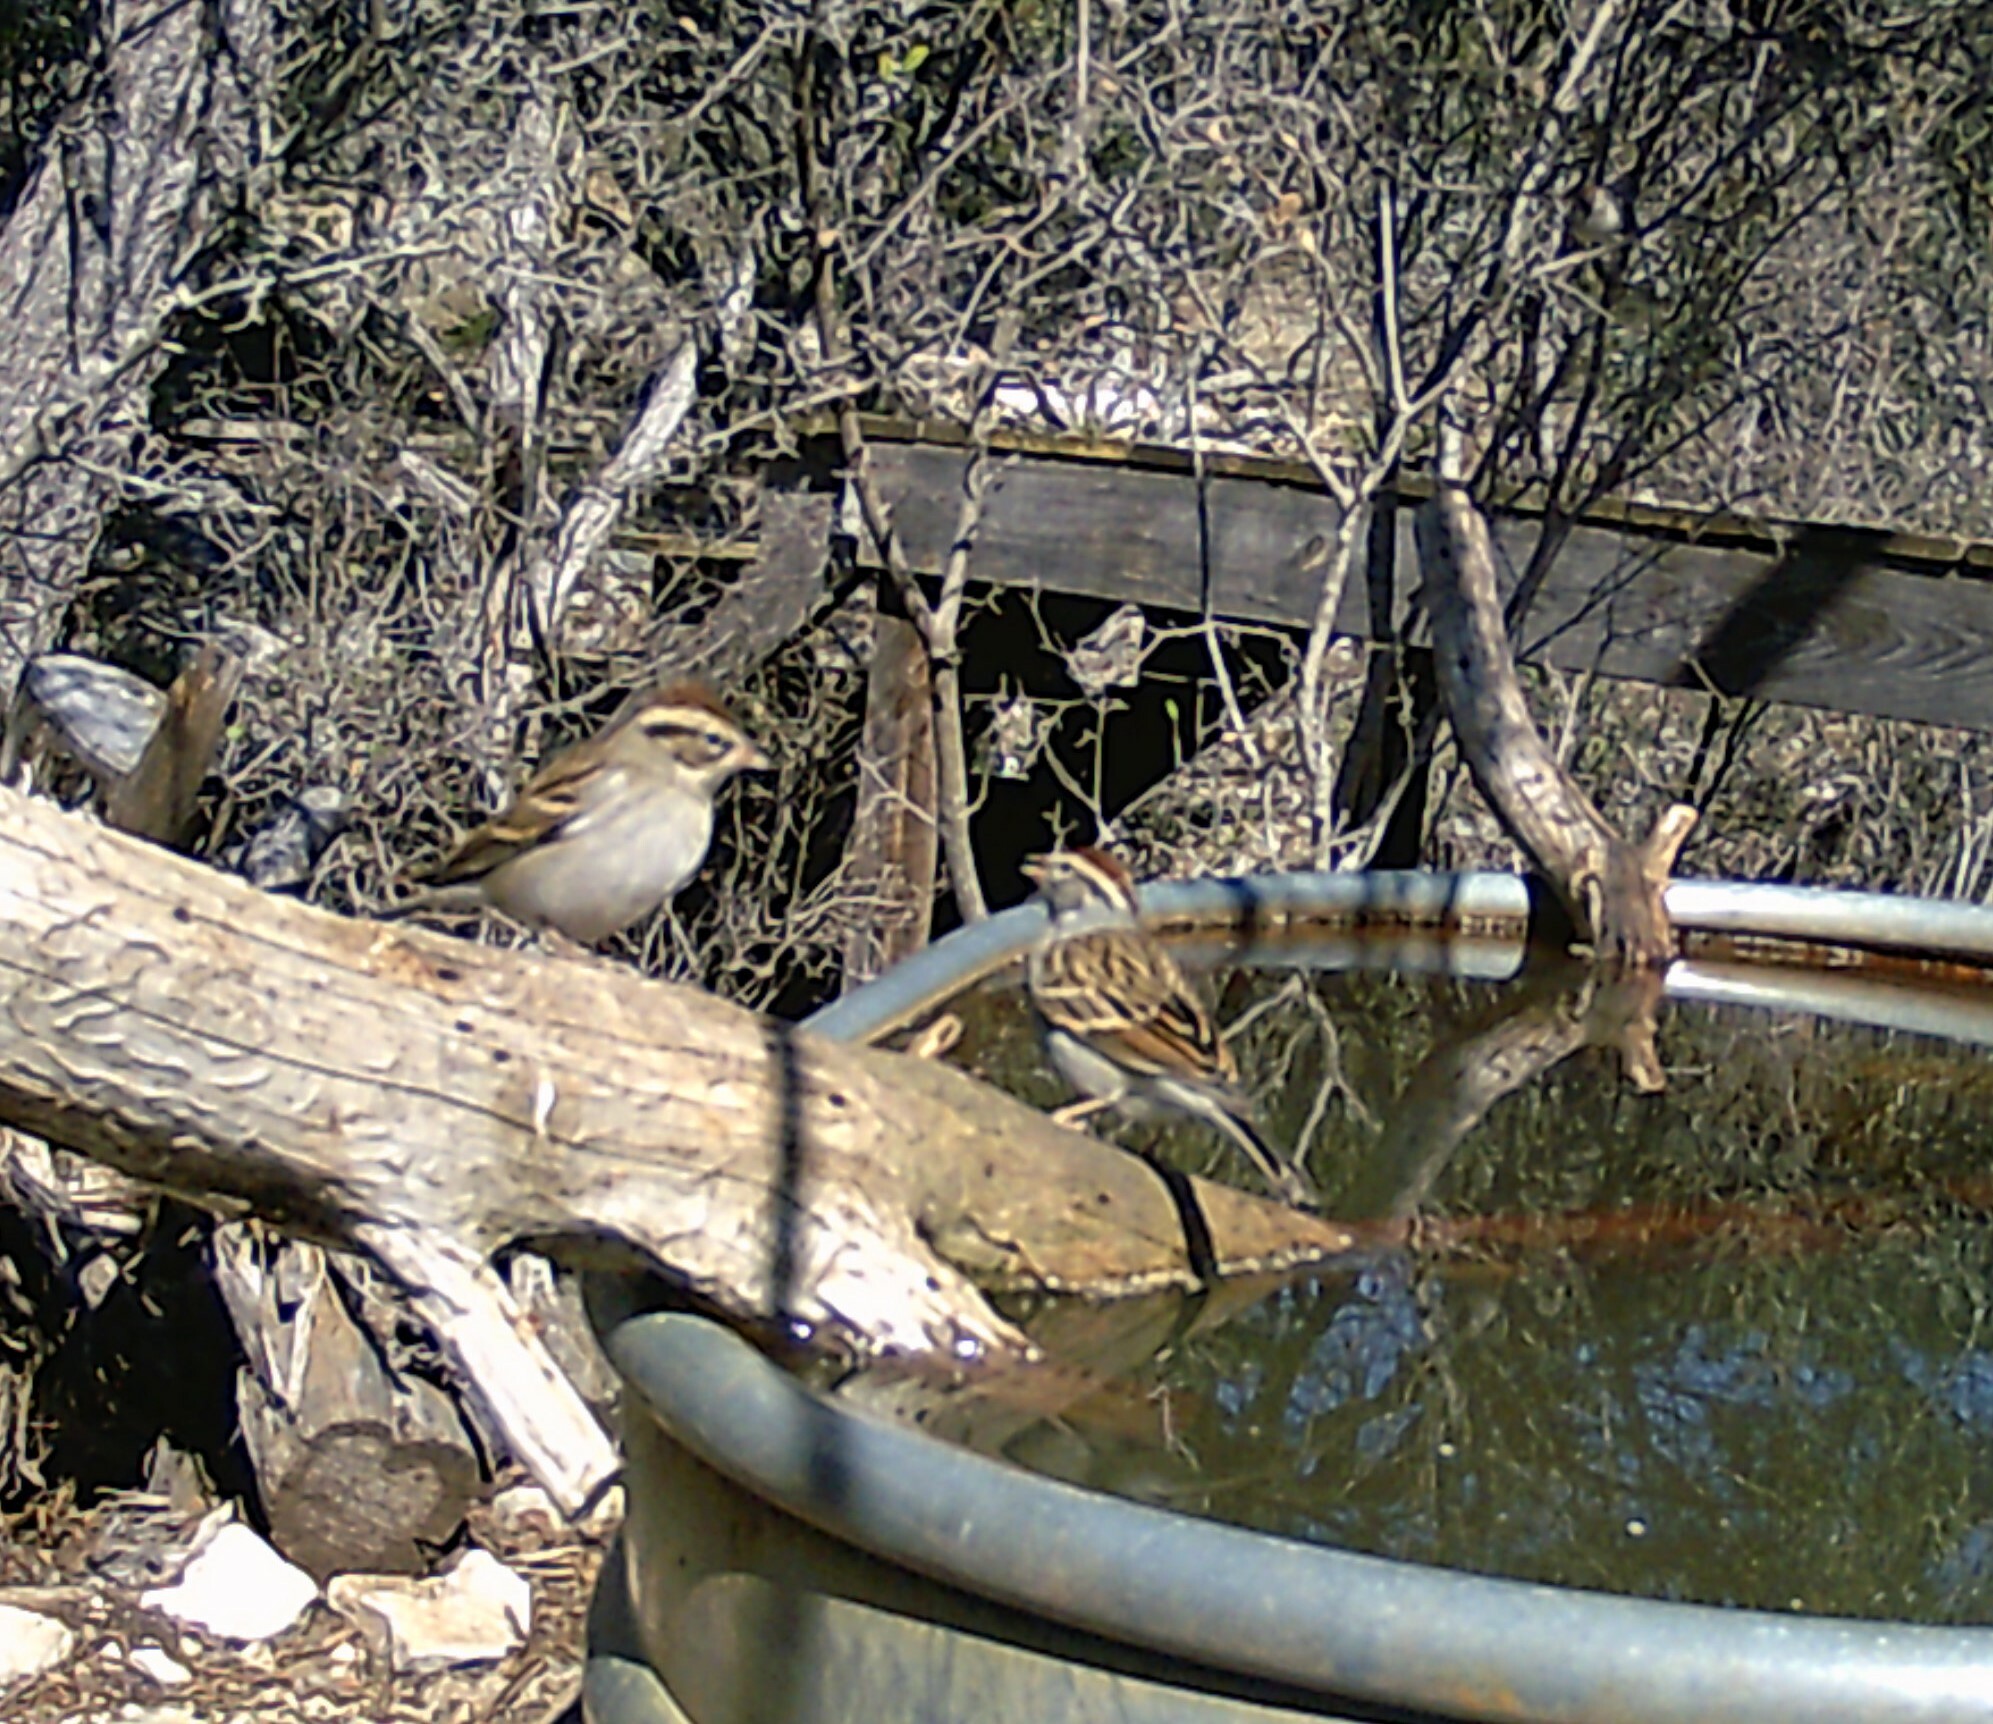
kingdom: Animalia
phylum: Chordata
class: Aves
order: Passeriformes
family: Passerellidae
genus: Spizella
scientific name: Spizella passerina
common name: Chipping sparrow
